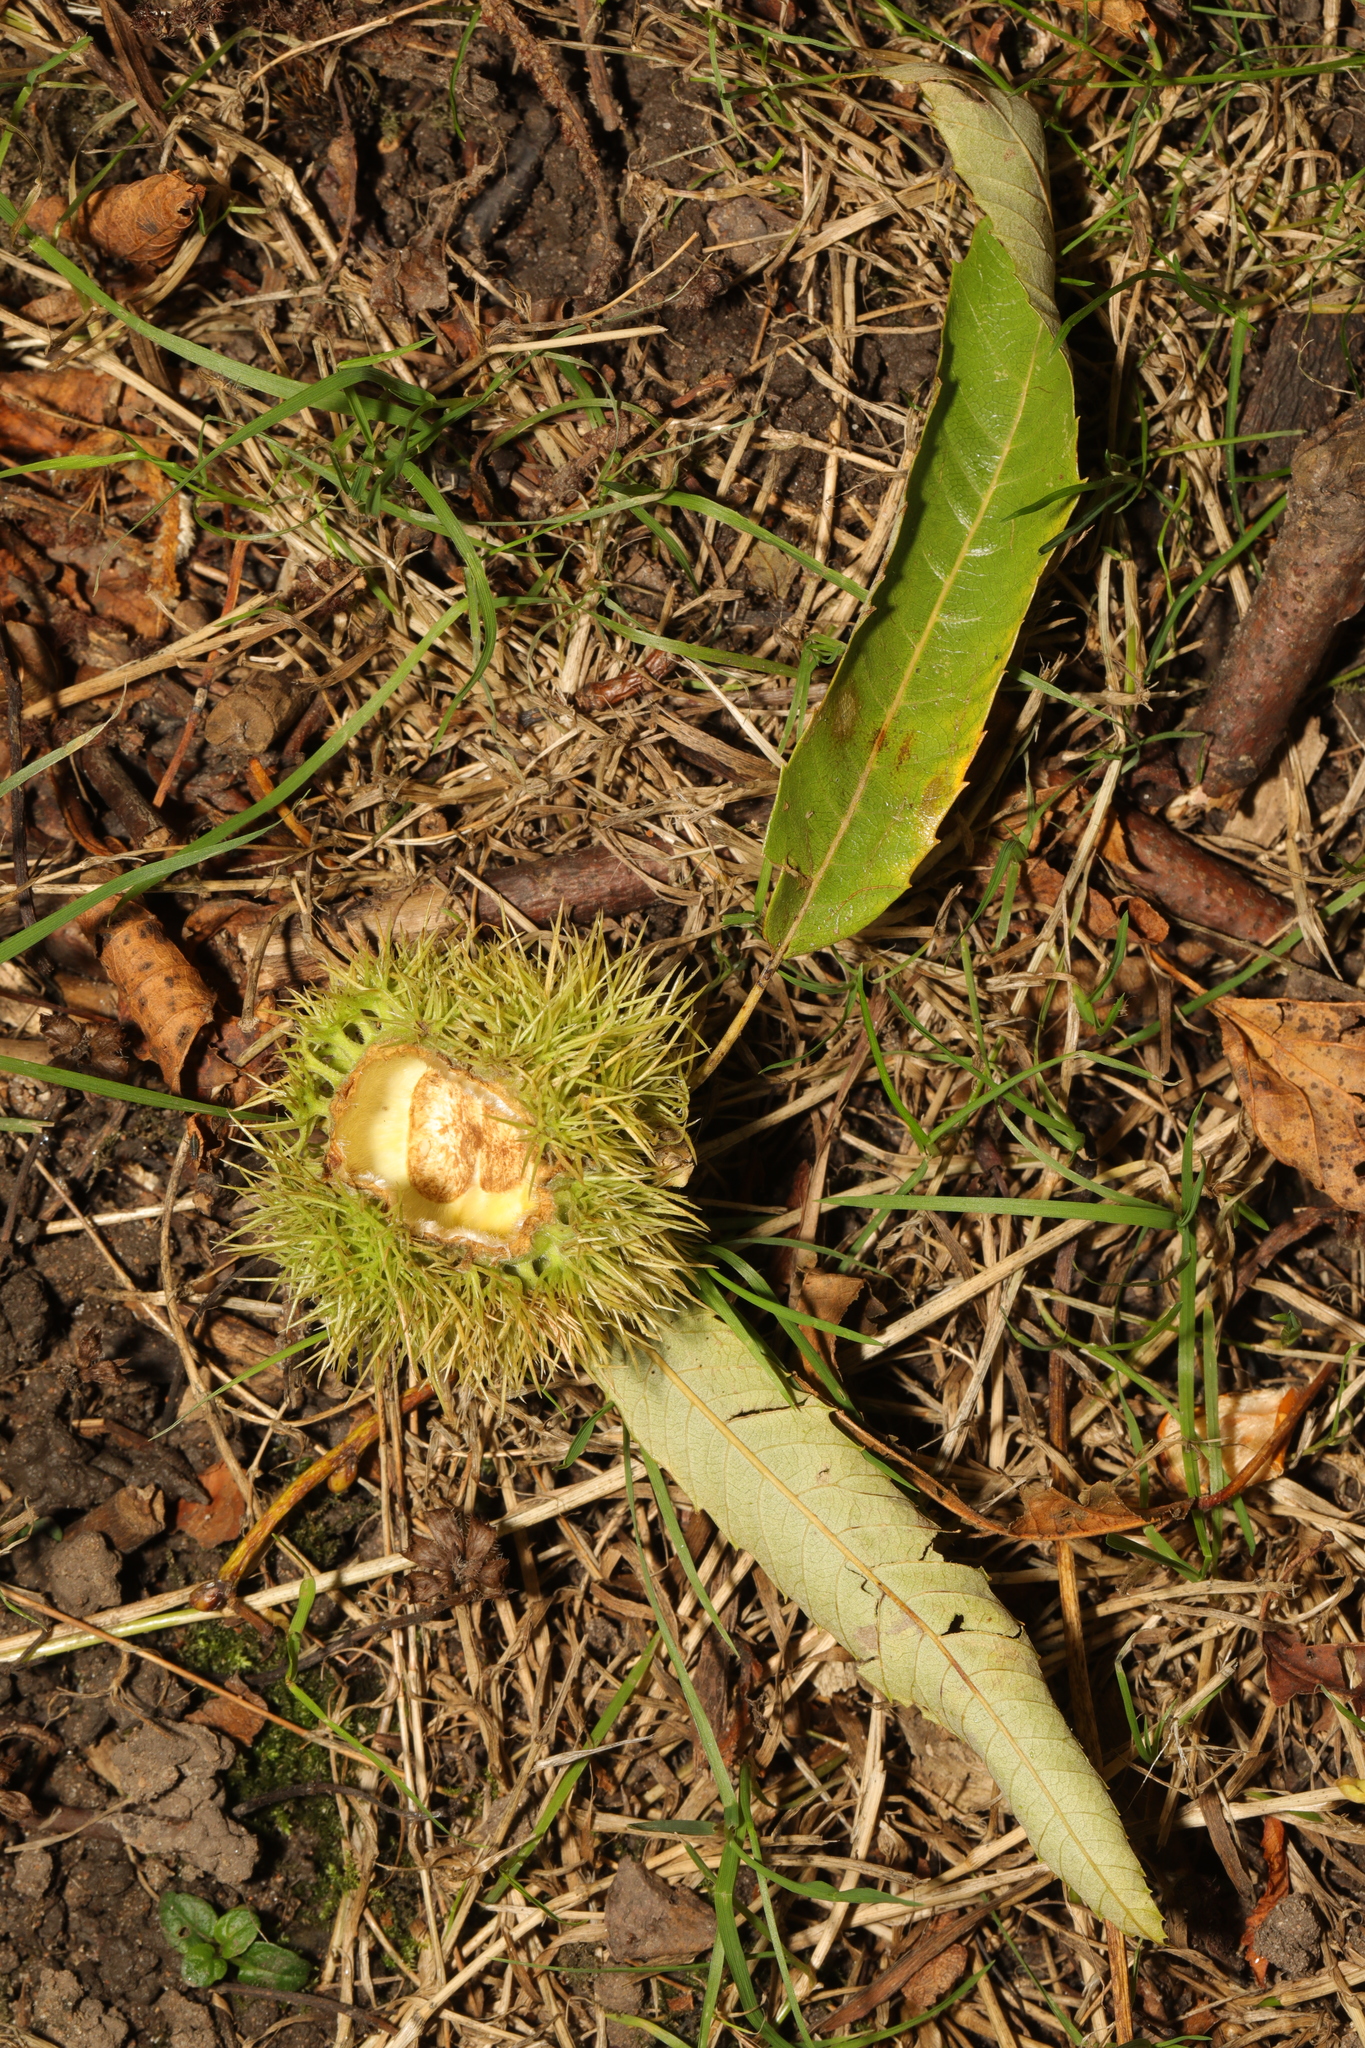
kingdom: Plantae
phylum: Tracheophyta
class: Magnoliopsida
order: Fagales
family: Fagaceae
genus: Castanea
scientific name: Castanea sativa
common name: Sweet chestnut
